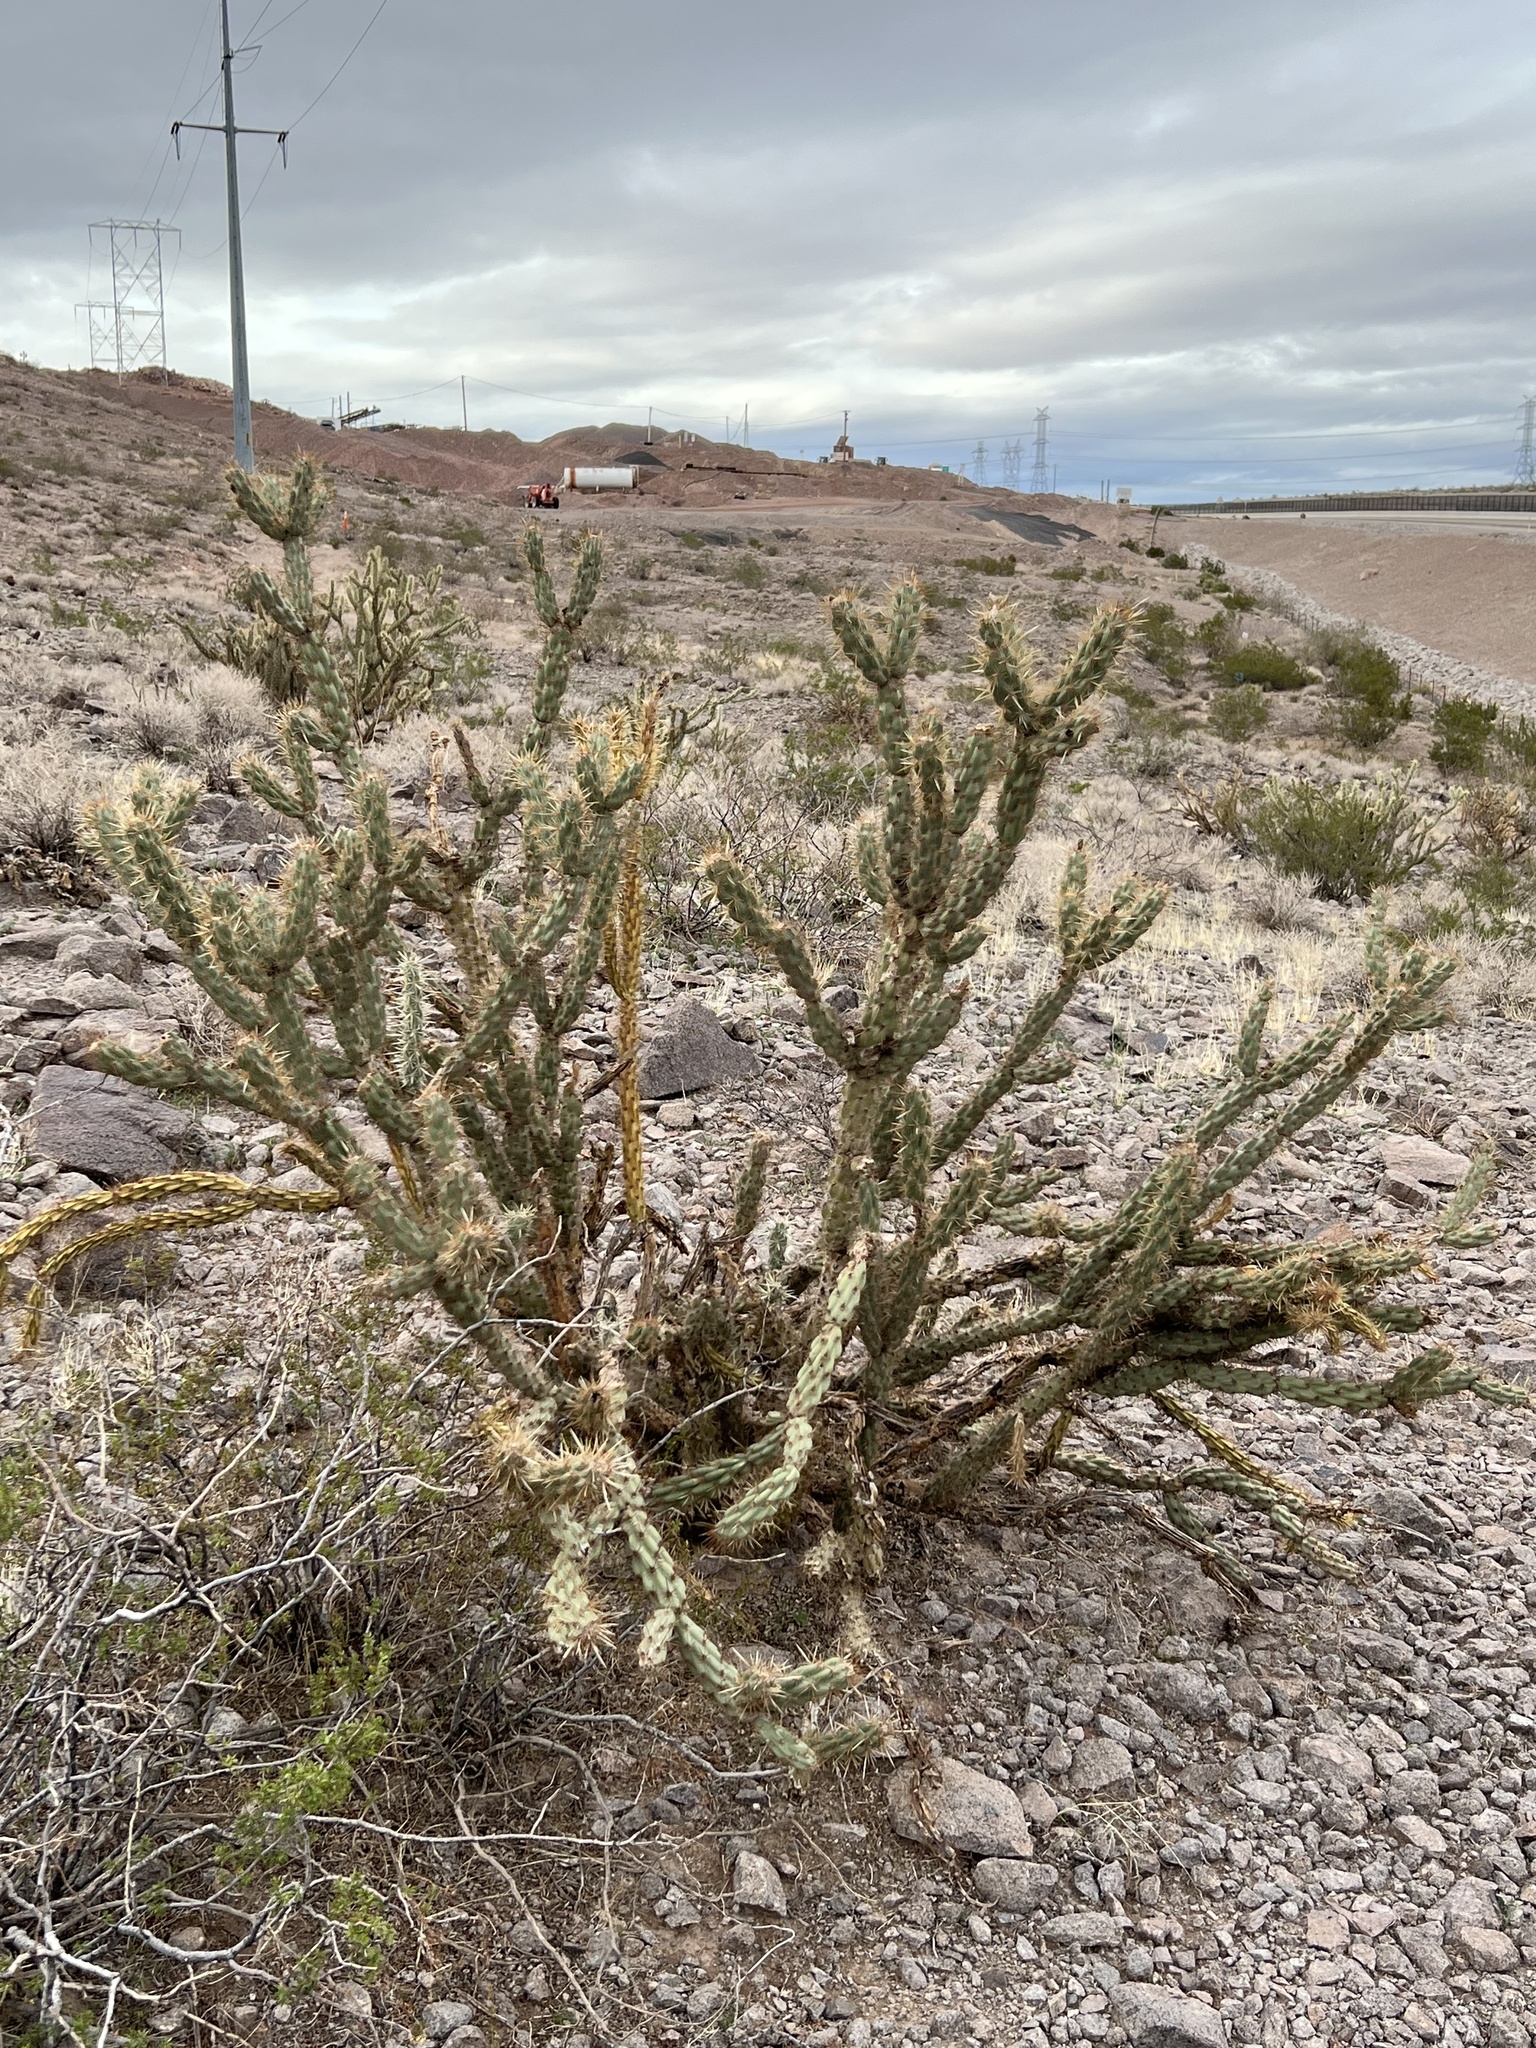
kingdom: Plantae
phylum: Tracheophyta
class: Magnoliopsida
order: Caryophyllales
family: Cactaceae
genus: Cylindropuntia
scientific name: Cylindropuntia acanthocarpa
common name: Buckhorn cholla
